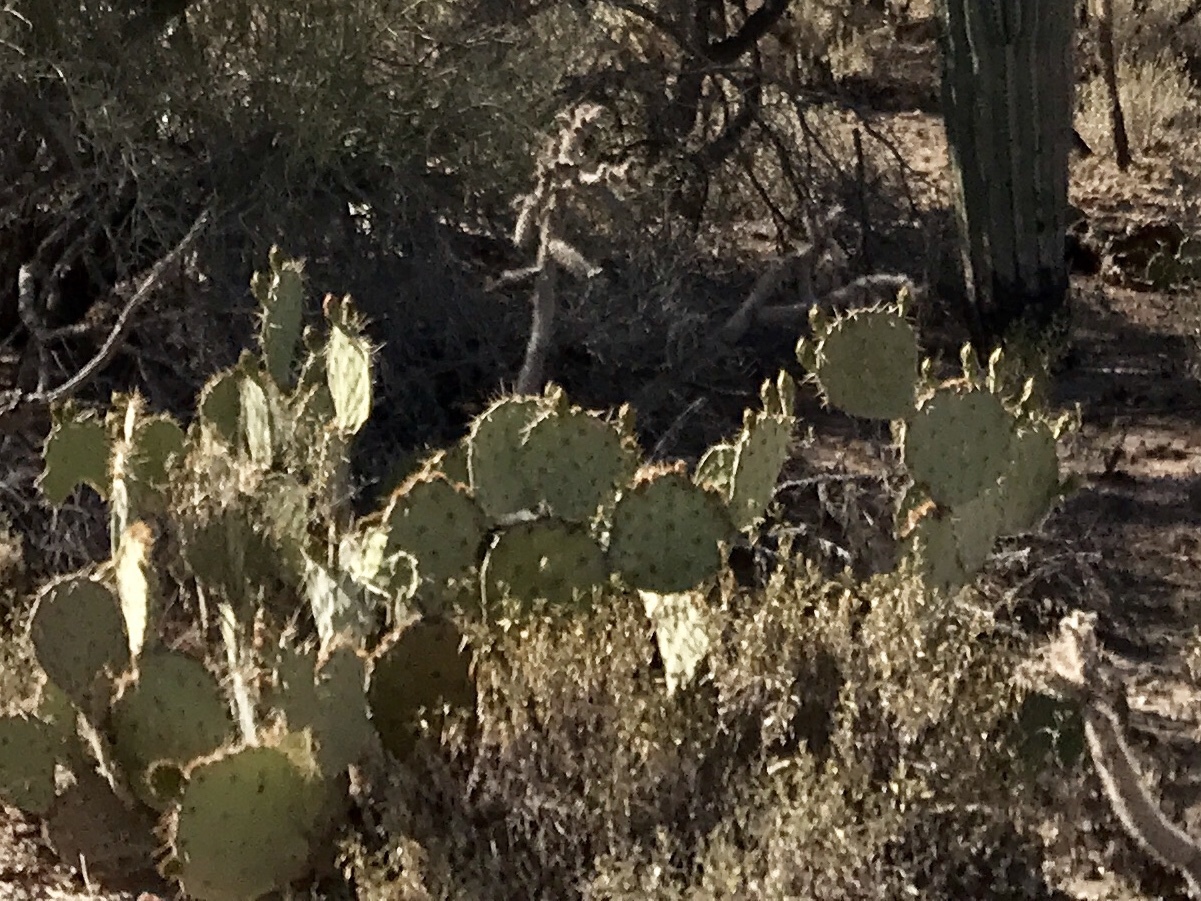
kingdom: Plantae
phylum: Tracheophyta
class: Magnoliopsida
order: Caryophyllales
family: Cactaceae
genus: Opuntia
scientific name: Opuntia engelmannii
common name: Cactus-apple
